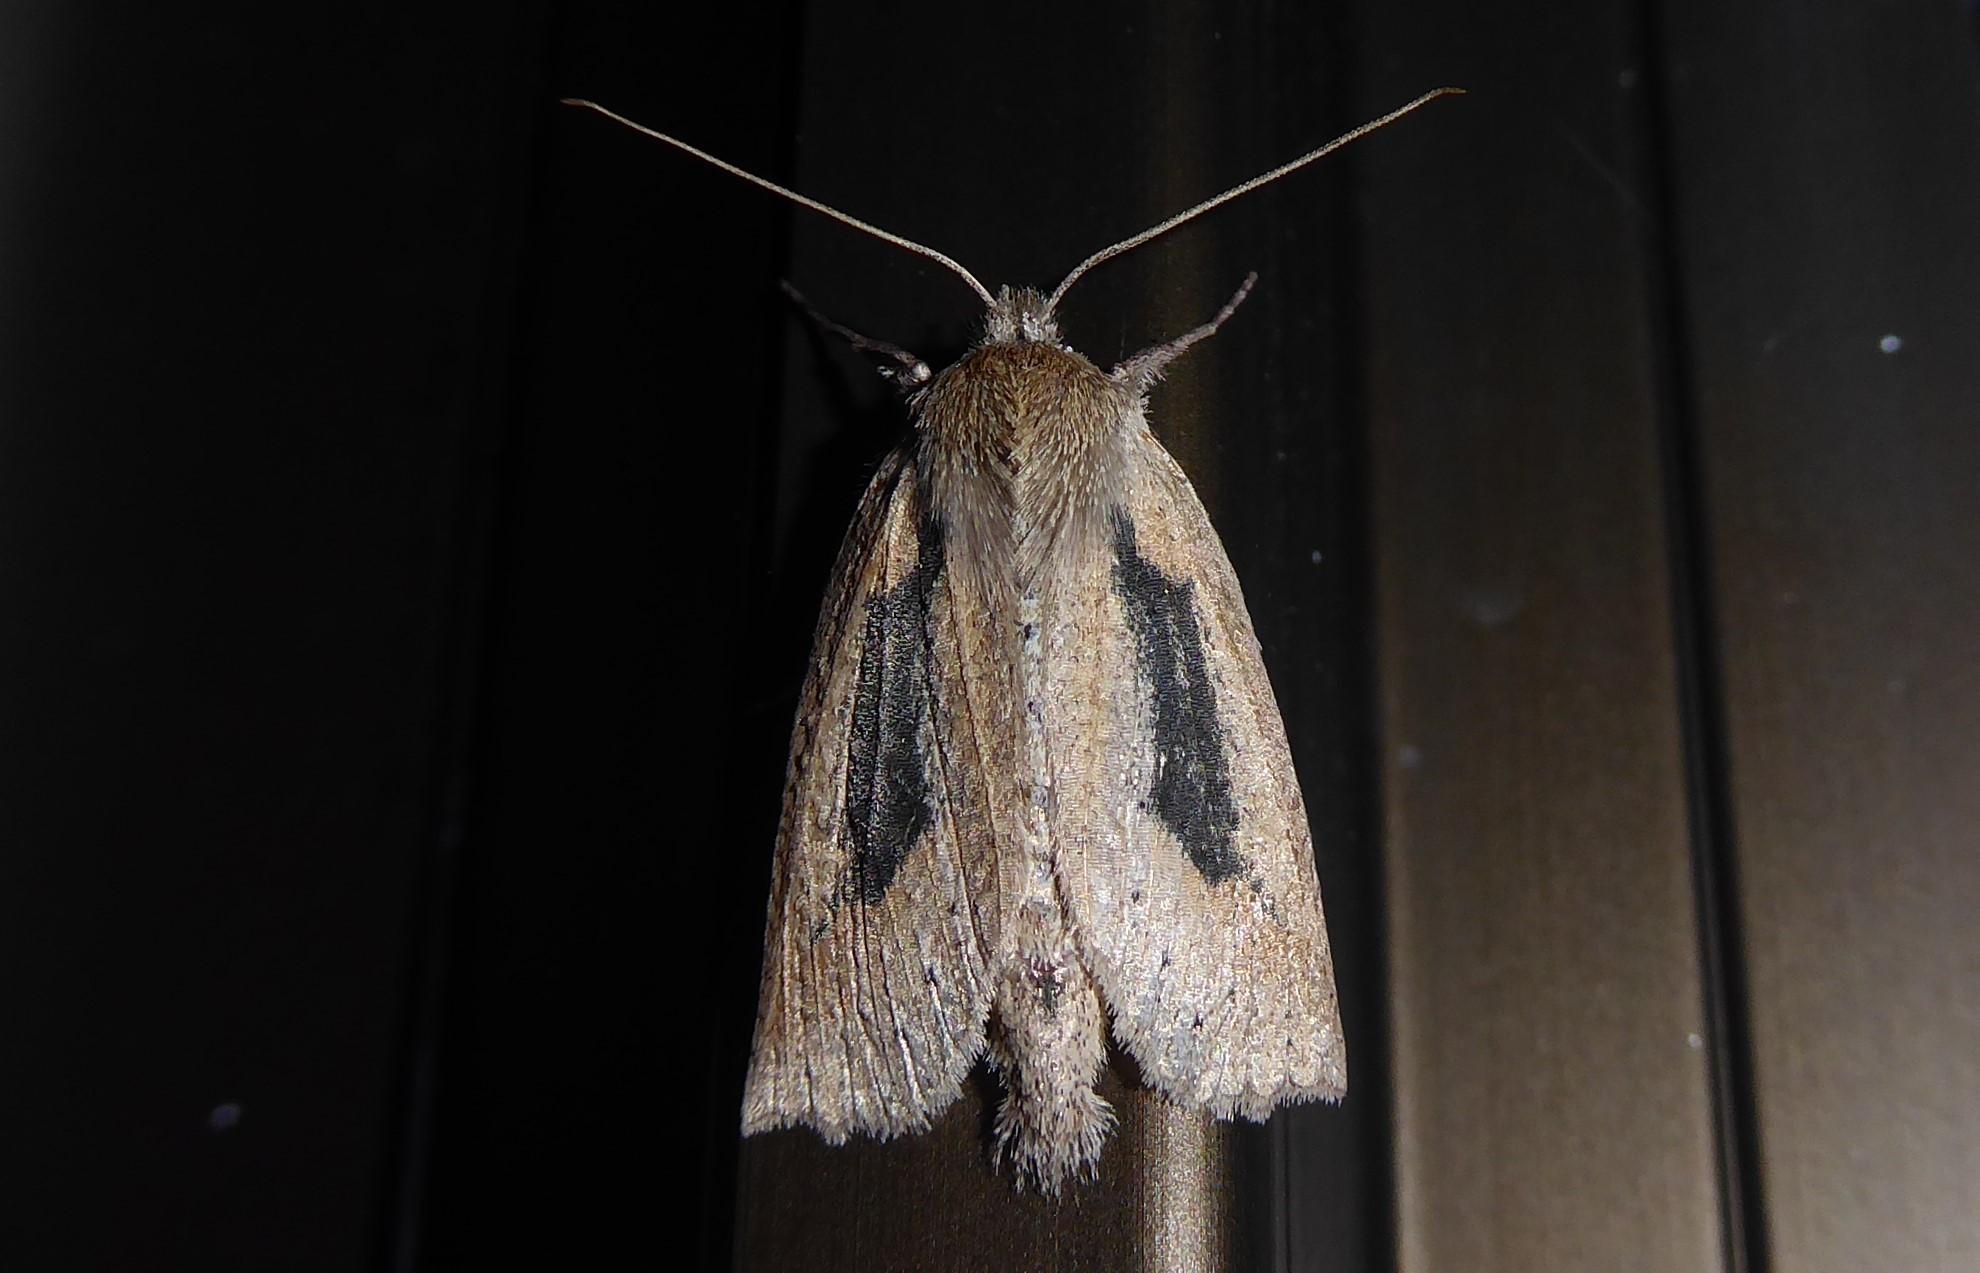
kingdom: Animalia
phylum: Arthropoda
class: Insecta
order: Lepidoptera
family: Geometridae
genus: Declana
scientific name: Declana leptomera
